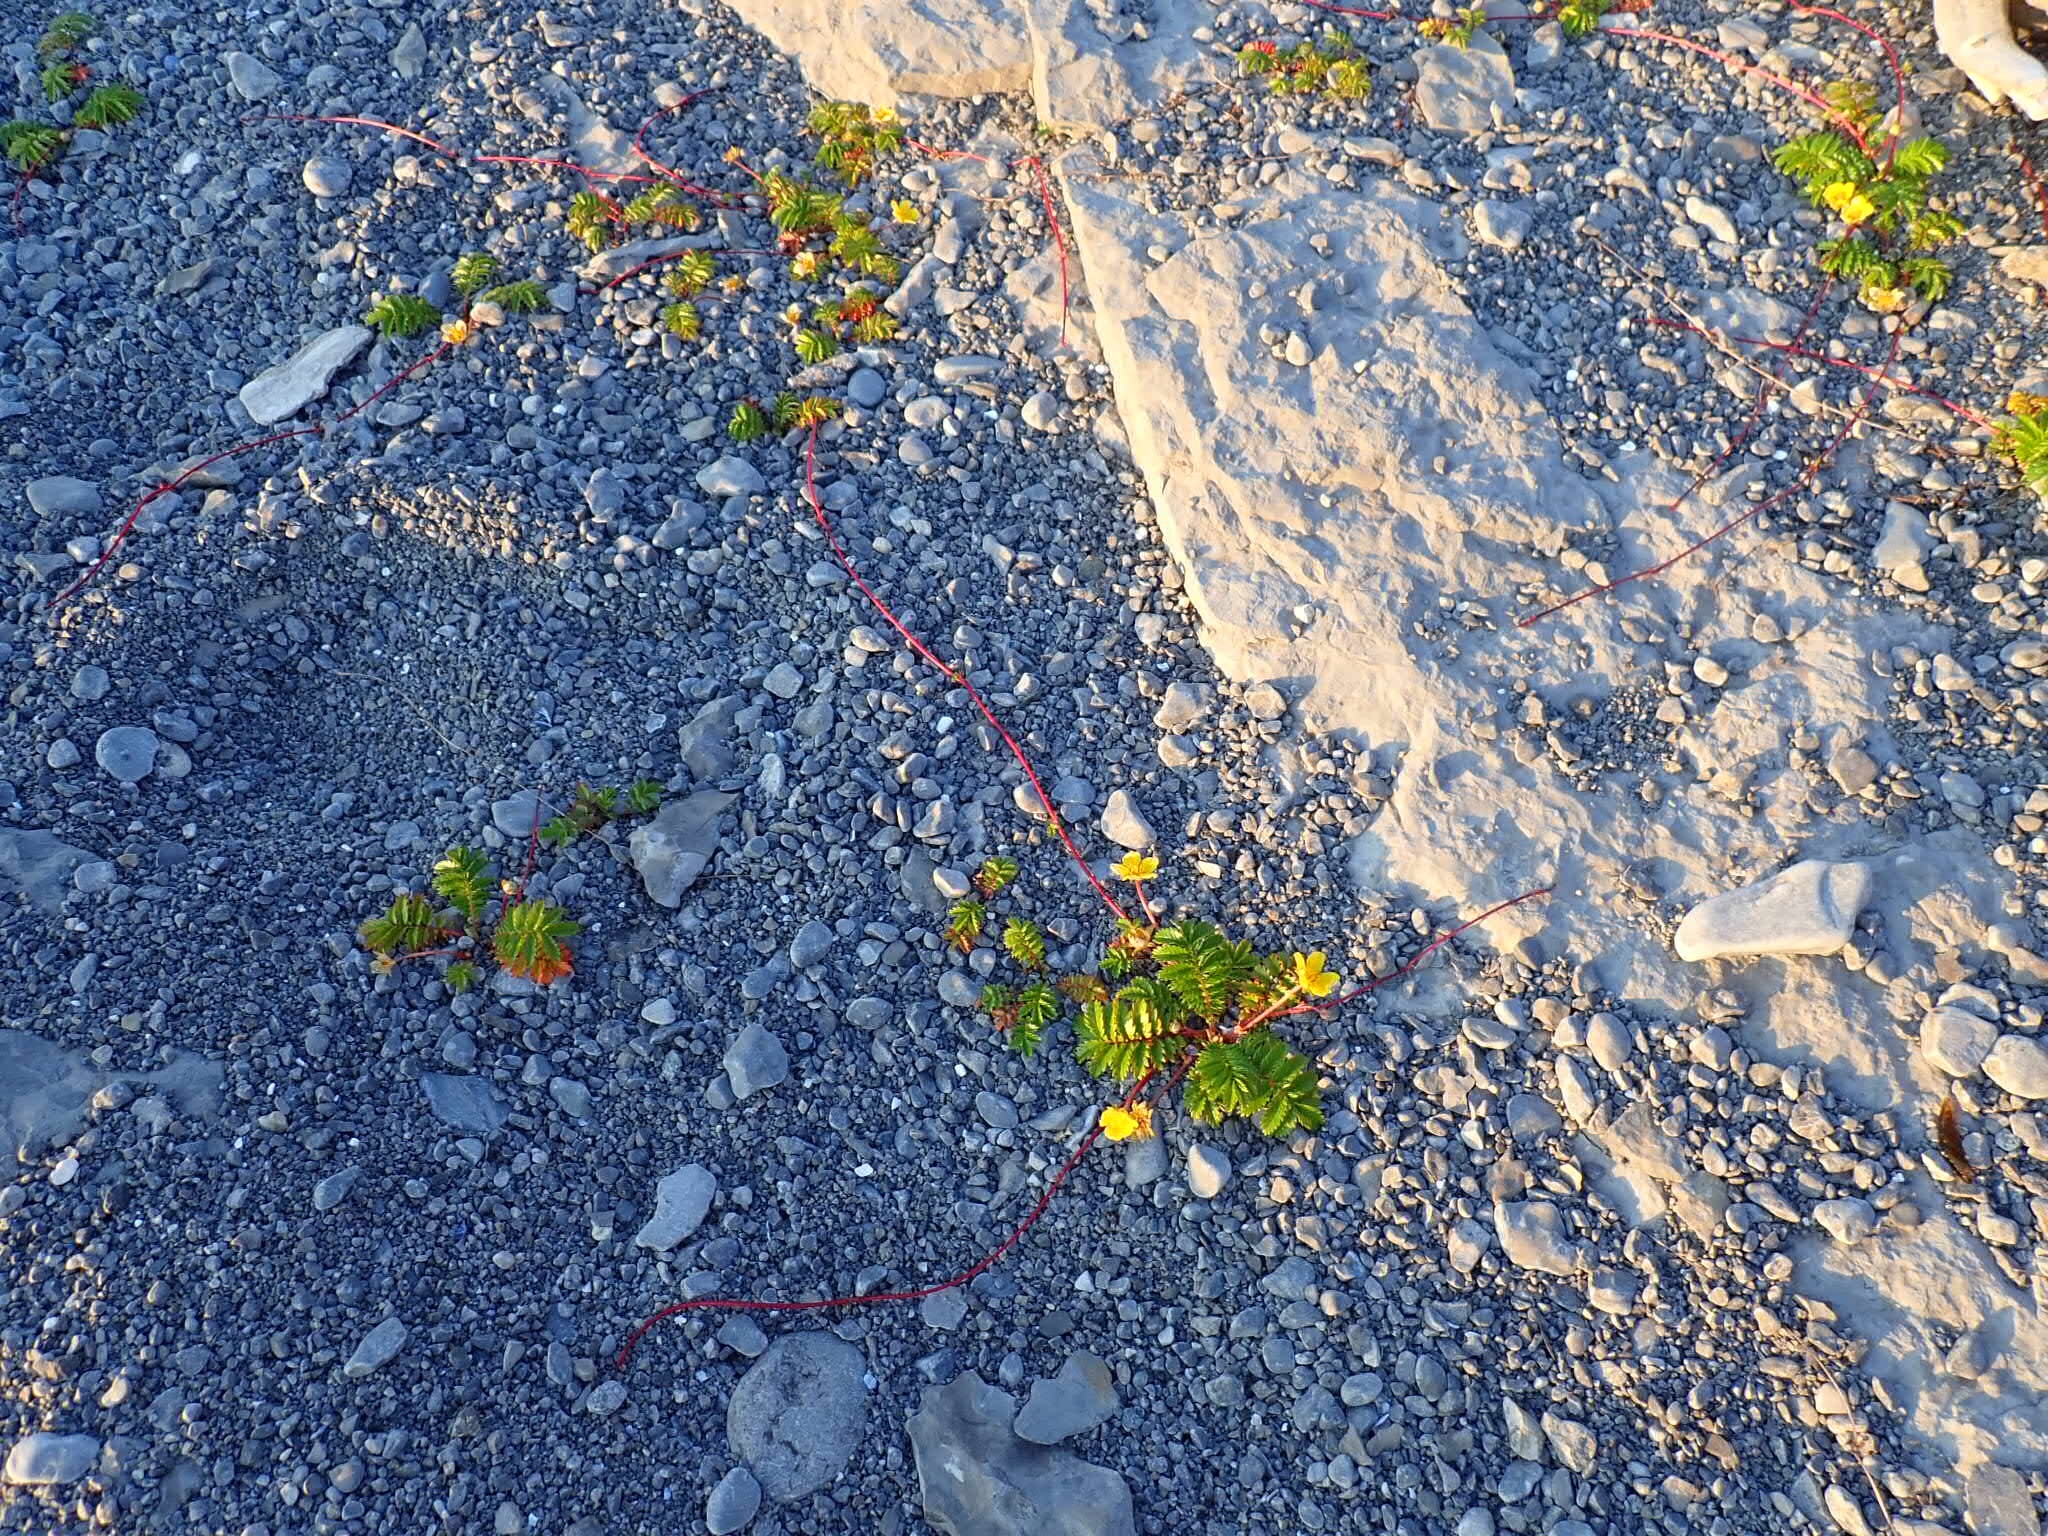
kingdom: Plantae
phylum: Tracheophyta
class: Magnoliopsida
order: Rosales
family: Rosaceae
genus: Argentina
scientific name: Argentina anserina
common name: Common silverweed
